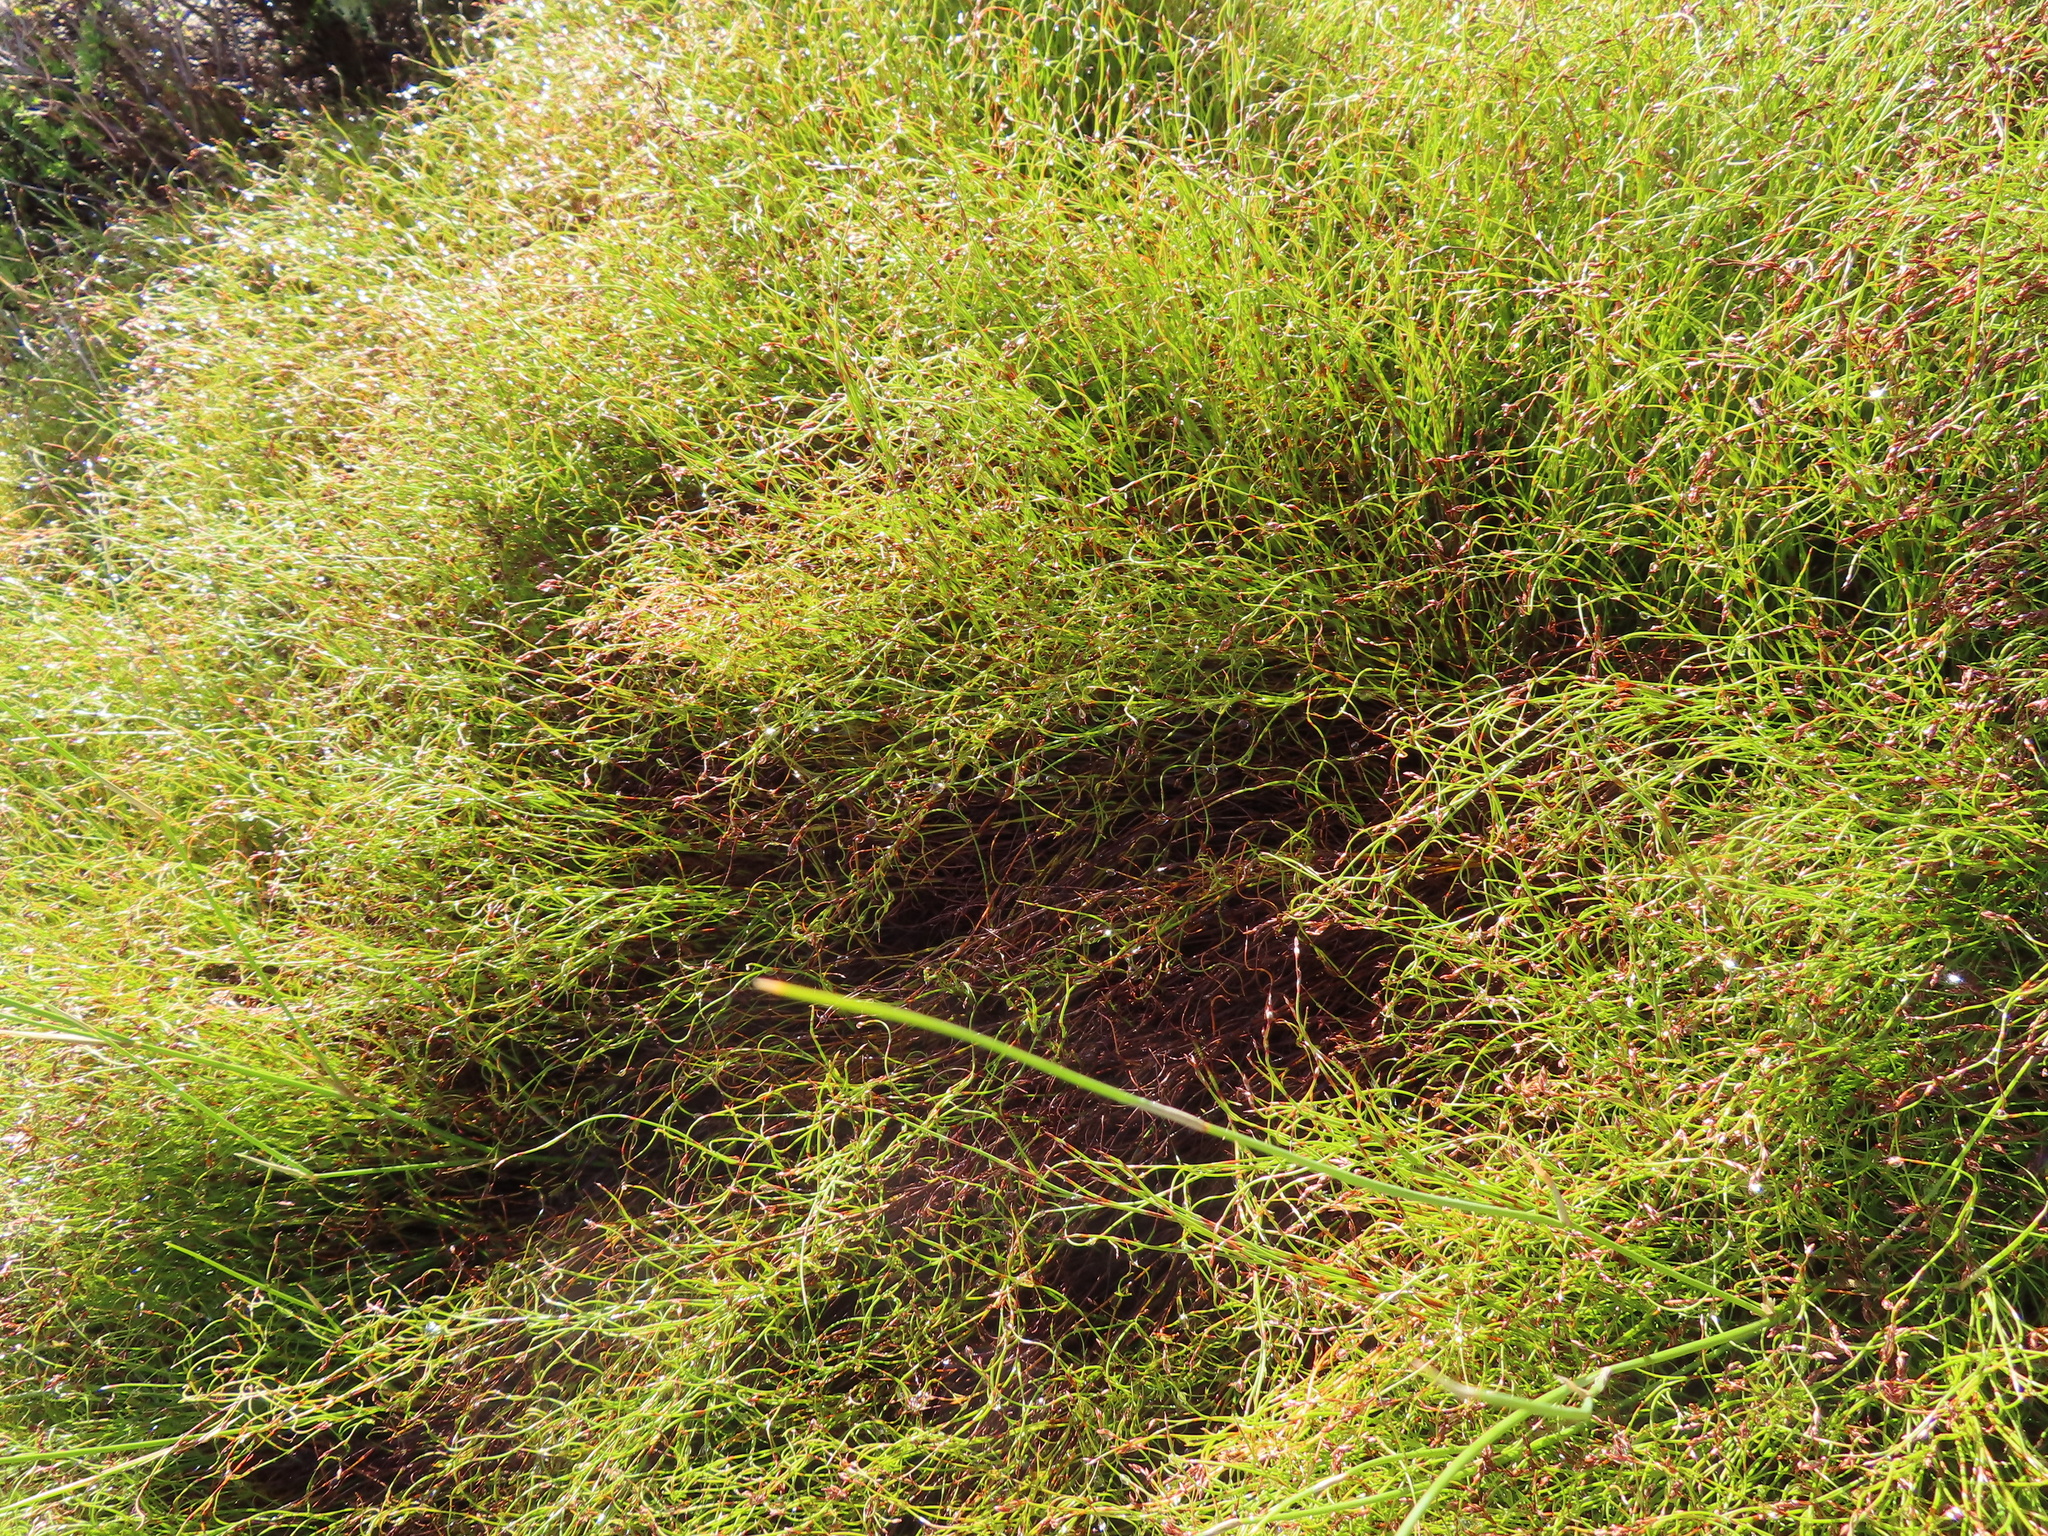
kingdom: Plantae
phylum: Tracheophyta
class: Liliopsida
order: Poales
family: Restionaceae
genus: Restio
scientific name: Restio perplexus
